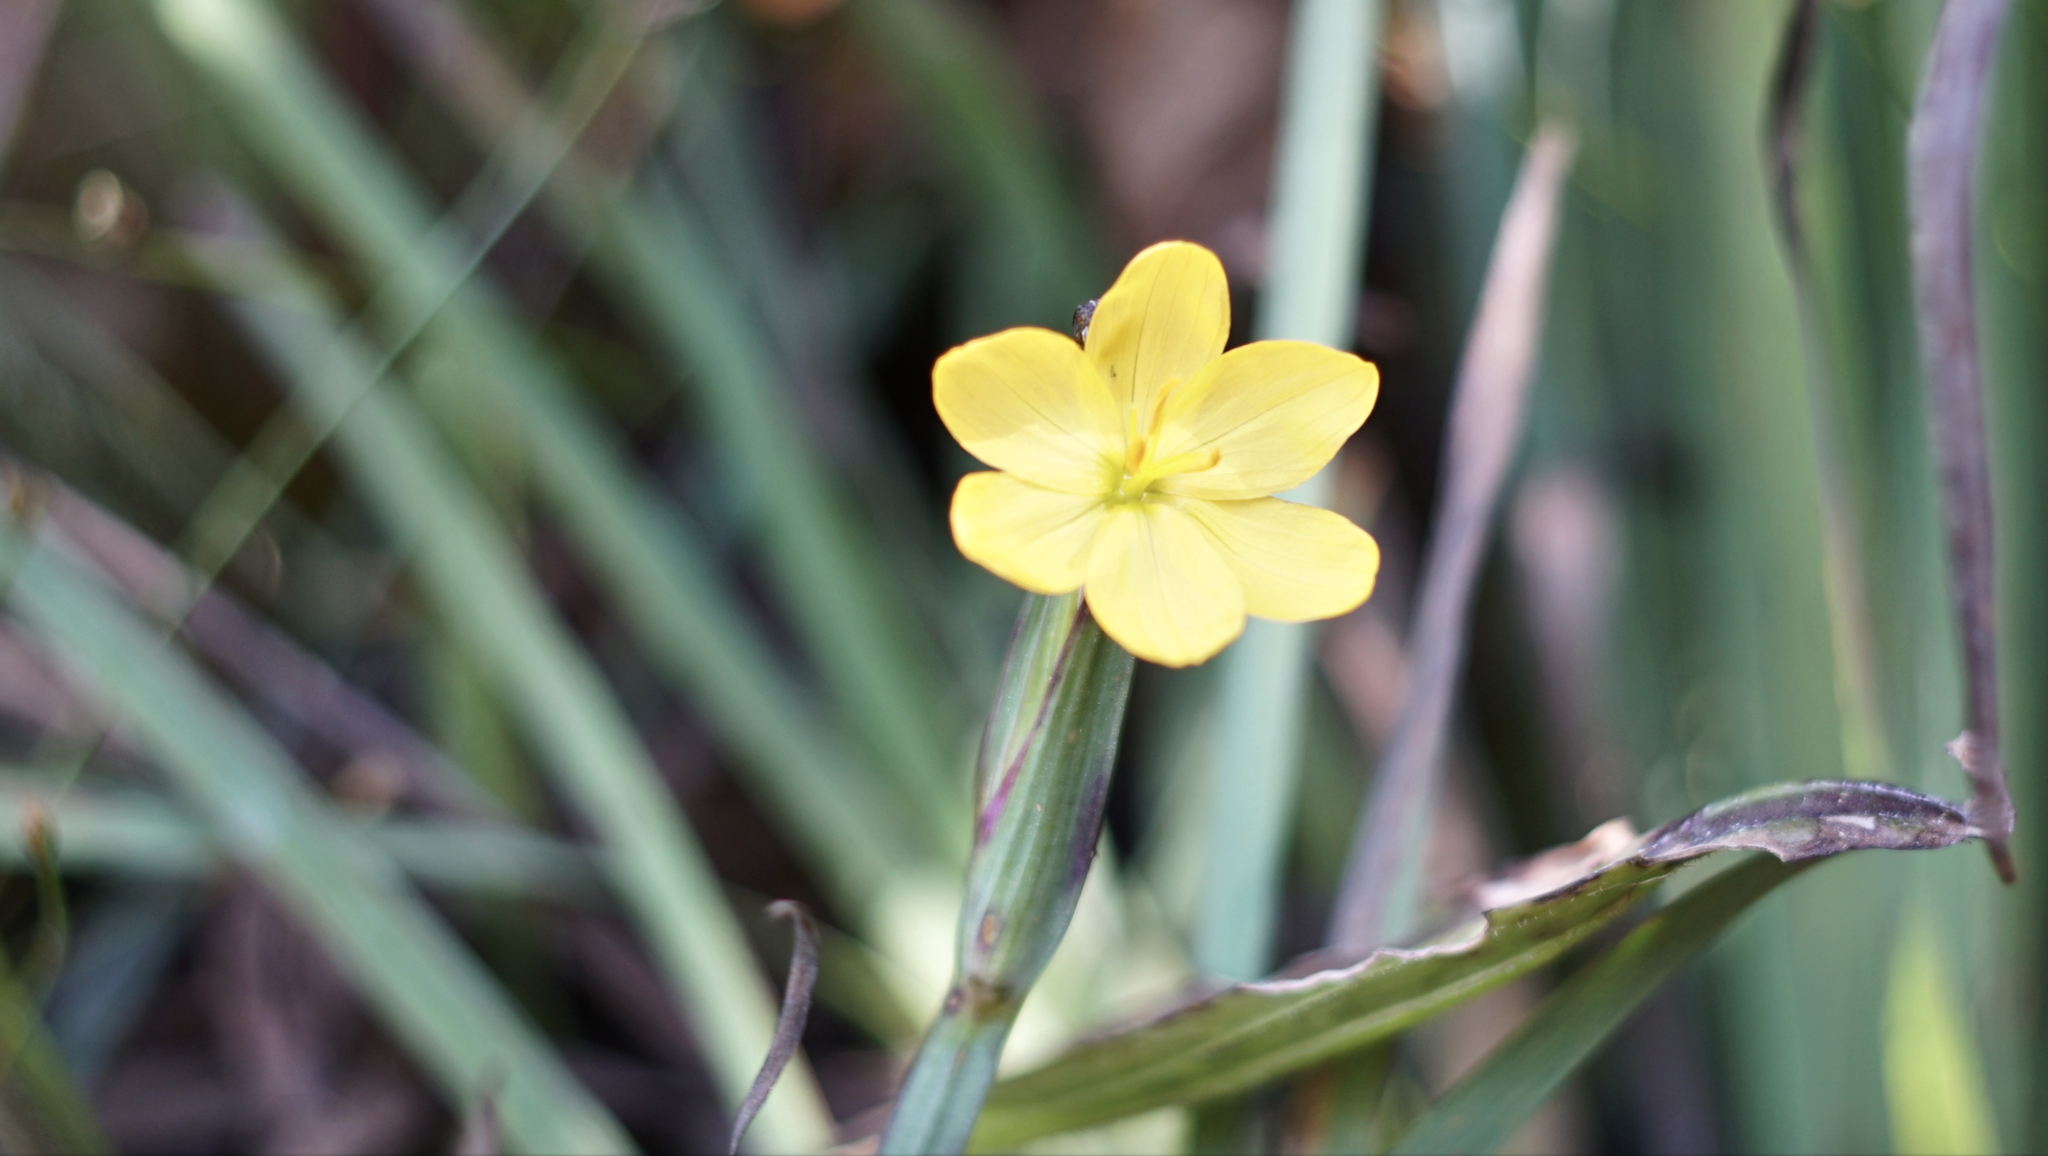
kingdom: Plantae
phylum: Tracheophyta
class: Liliopsida
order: Asparagales
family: Iridaceae
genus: Sisyrinchium
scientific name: Sisyrinchium californicum
